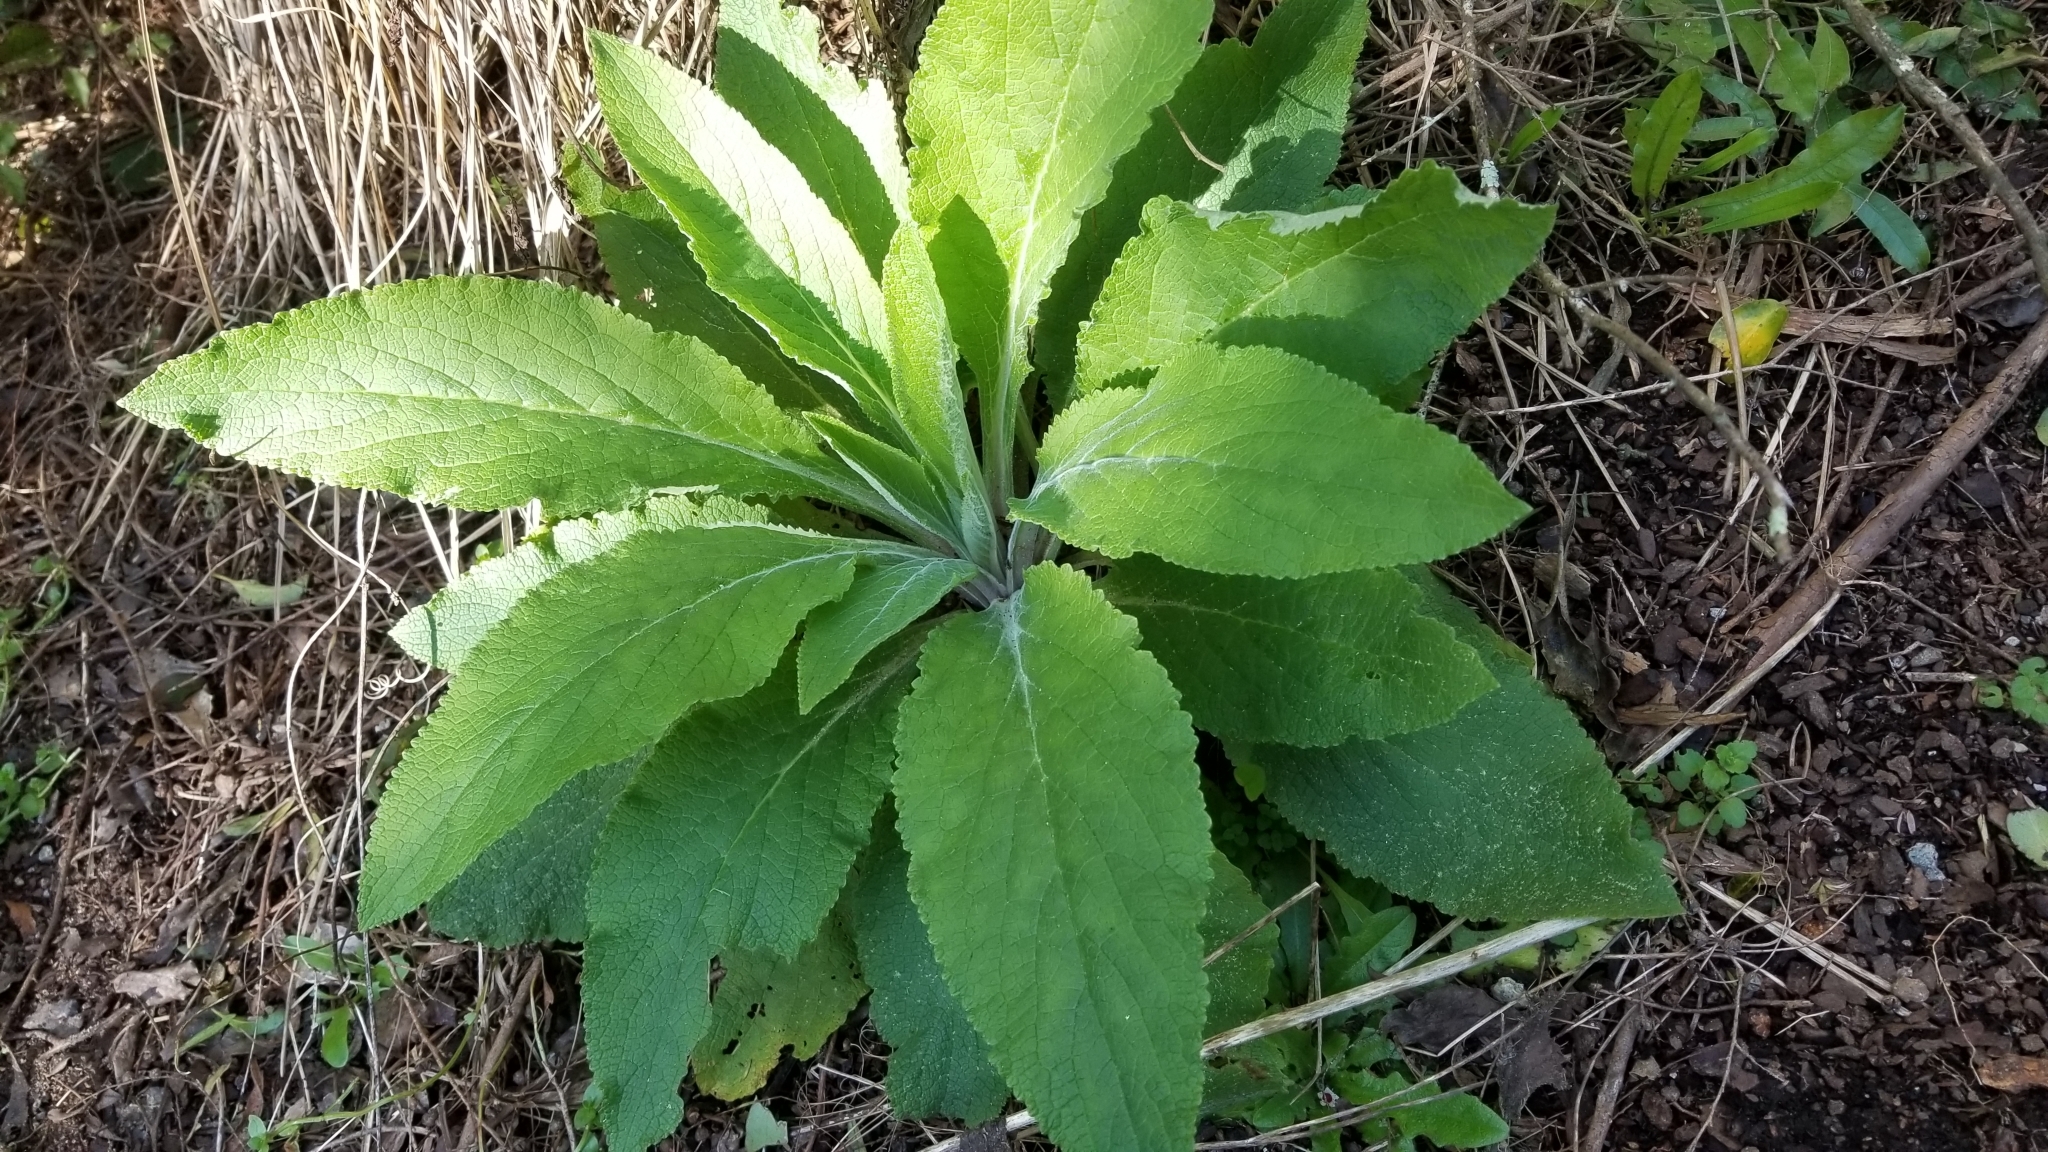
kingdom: Plantae
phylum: Tracheophyta
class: Magnoliopsida
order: Lamiales
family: Plantaginaceae
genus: Digitalis
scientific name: Digitalis purpurea
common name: Foxglove
